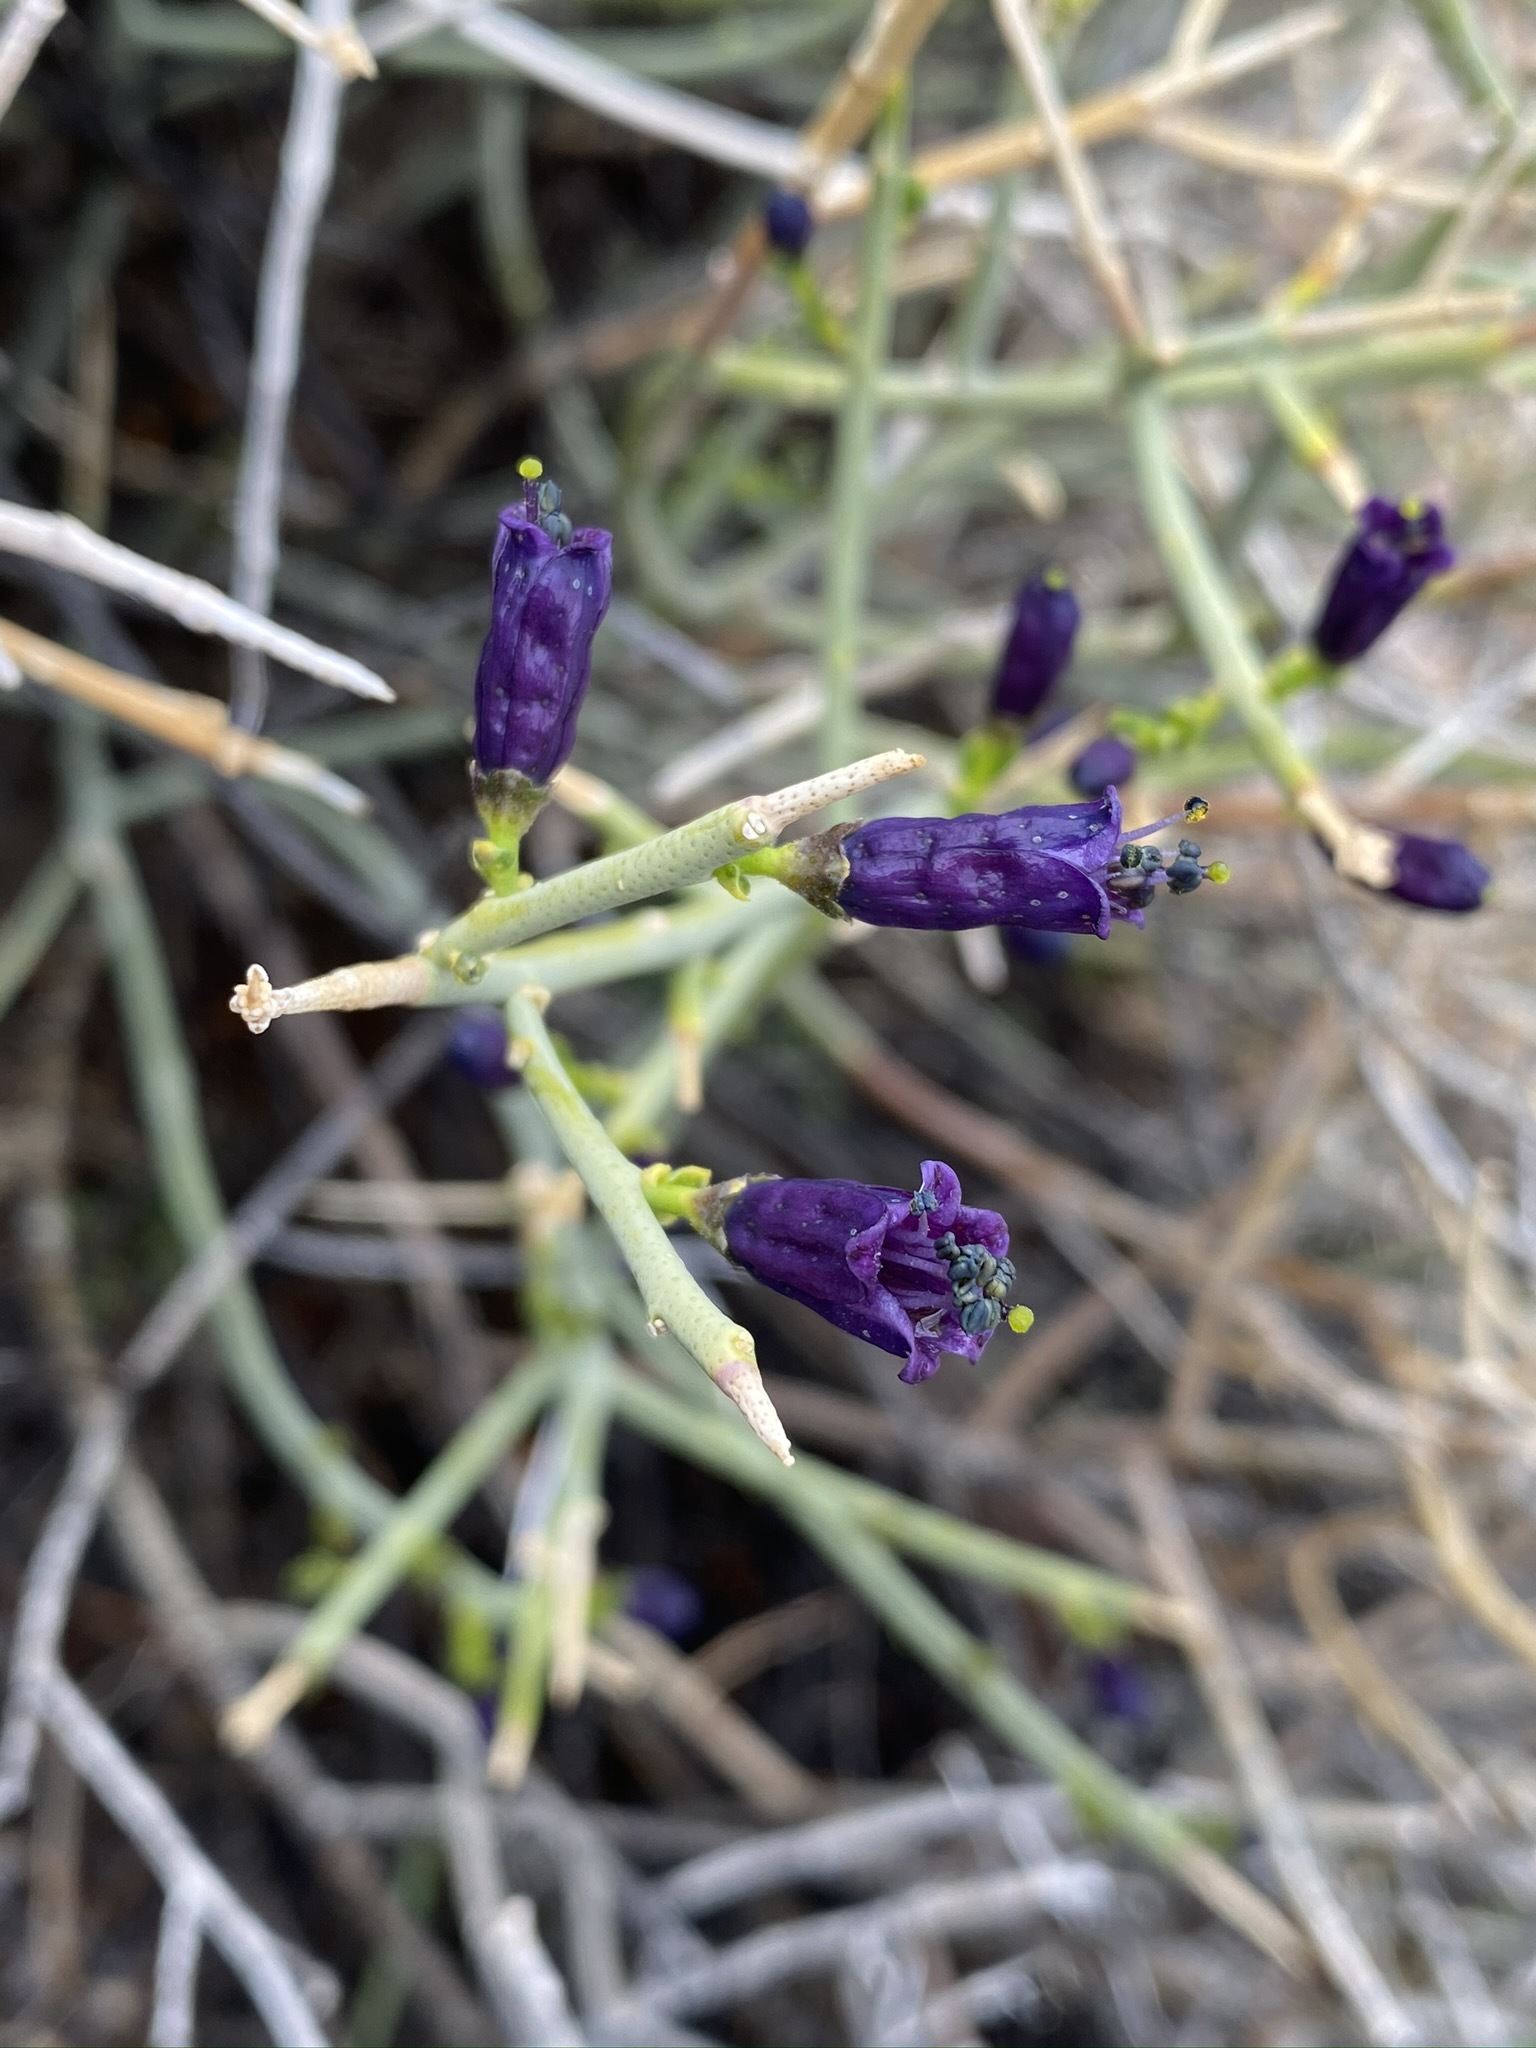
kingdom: Plantae
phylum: Tracheophyta
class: Magnoliopsida
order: Sapindales
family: Rutaceae
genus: Thamnosma
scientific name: Thamnosma montana
